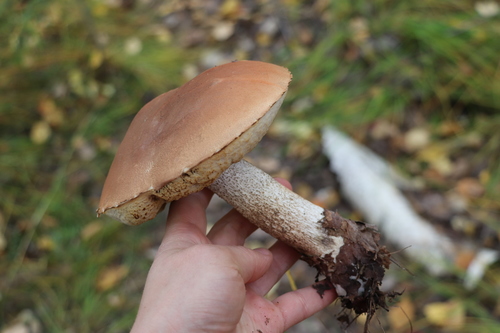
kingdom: Fungi
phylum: Basidiomycota
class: Agaricomycetes
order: Boletales
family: Boletaceae
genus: Leccinum
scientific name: Leccinum scabrum
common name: Blushing bolete
